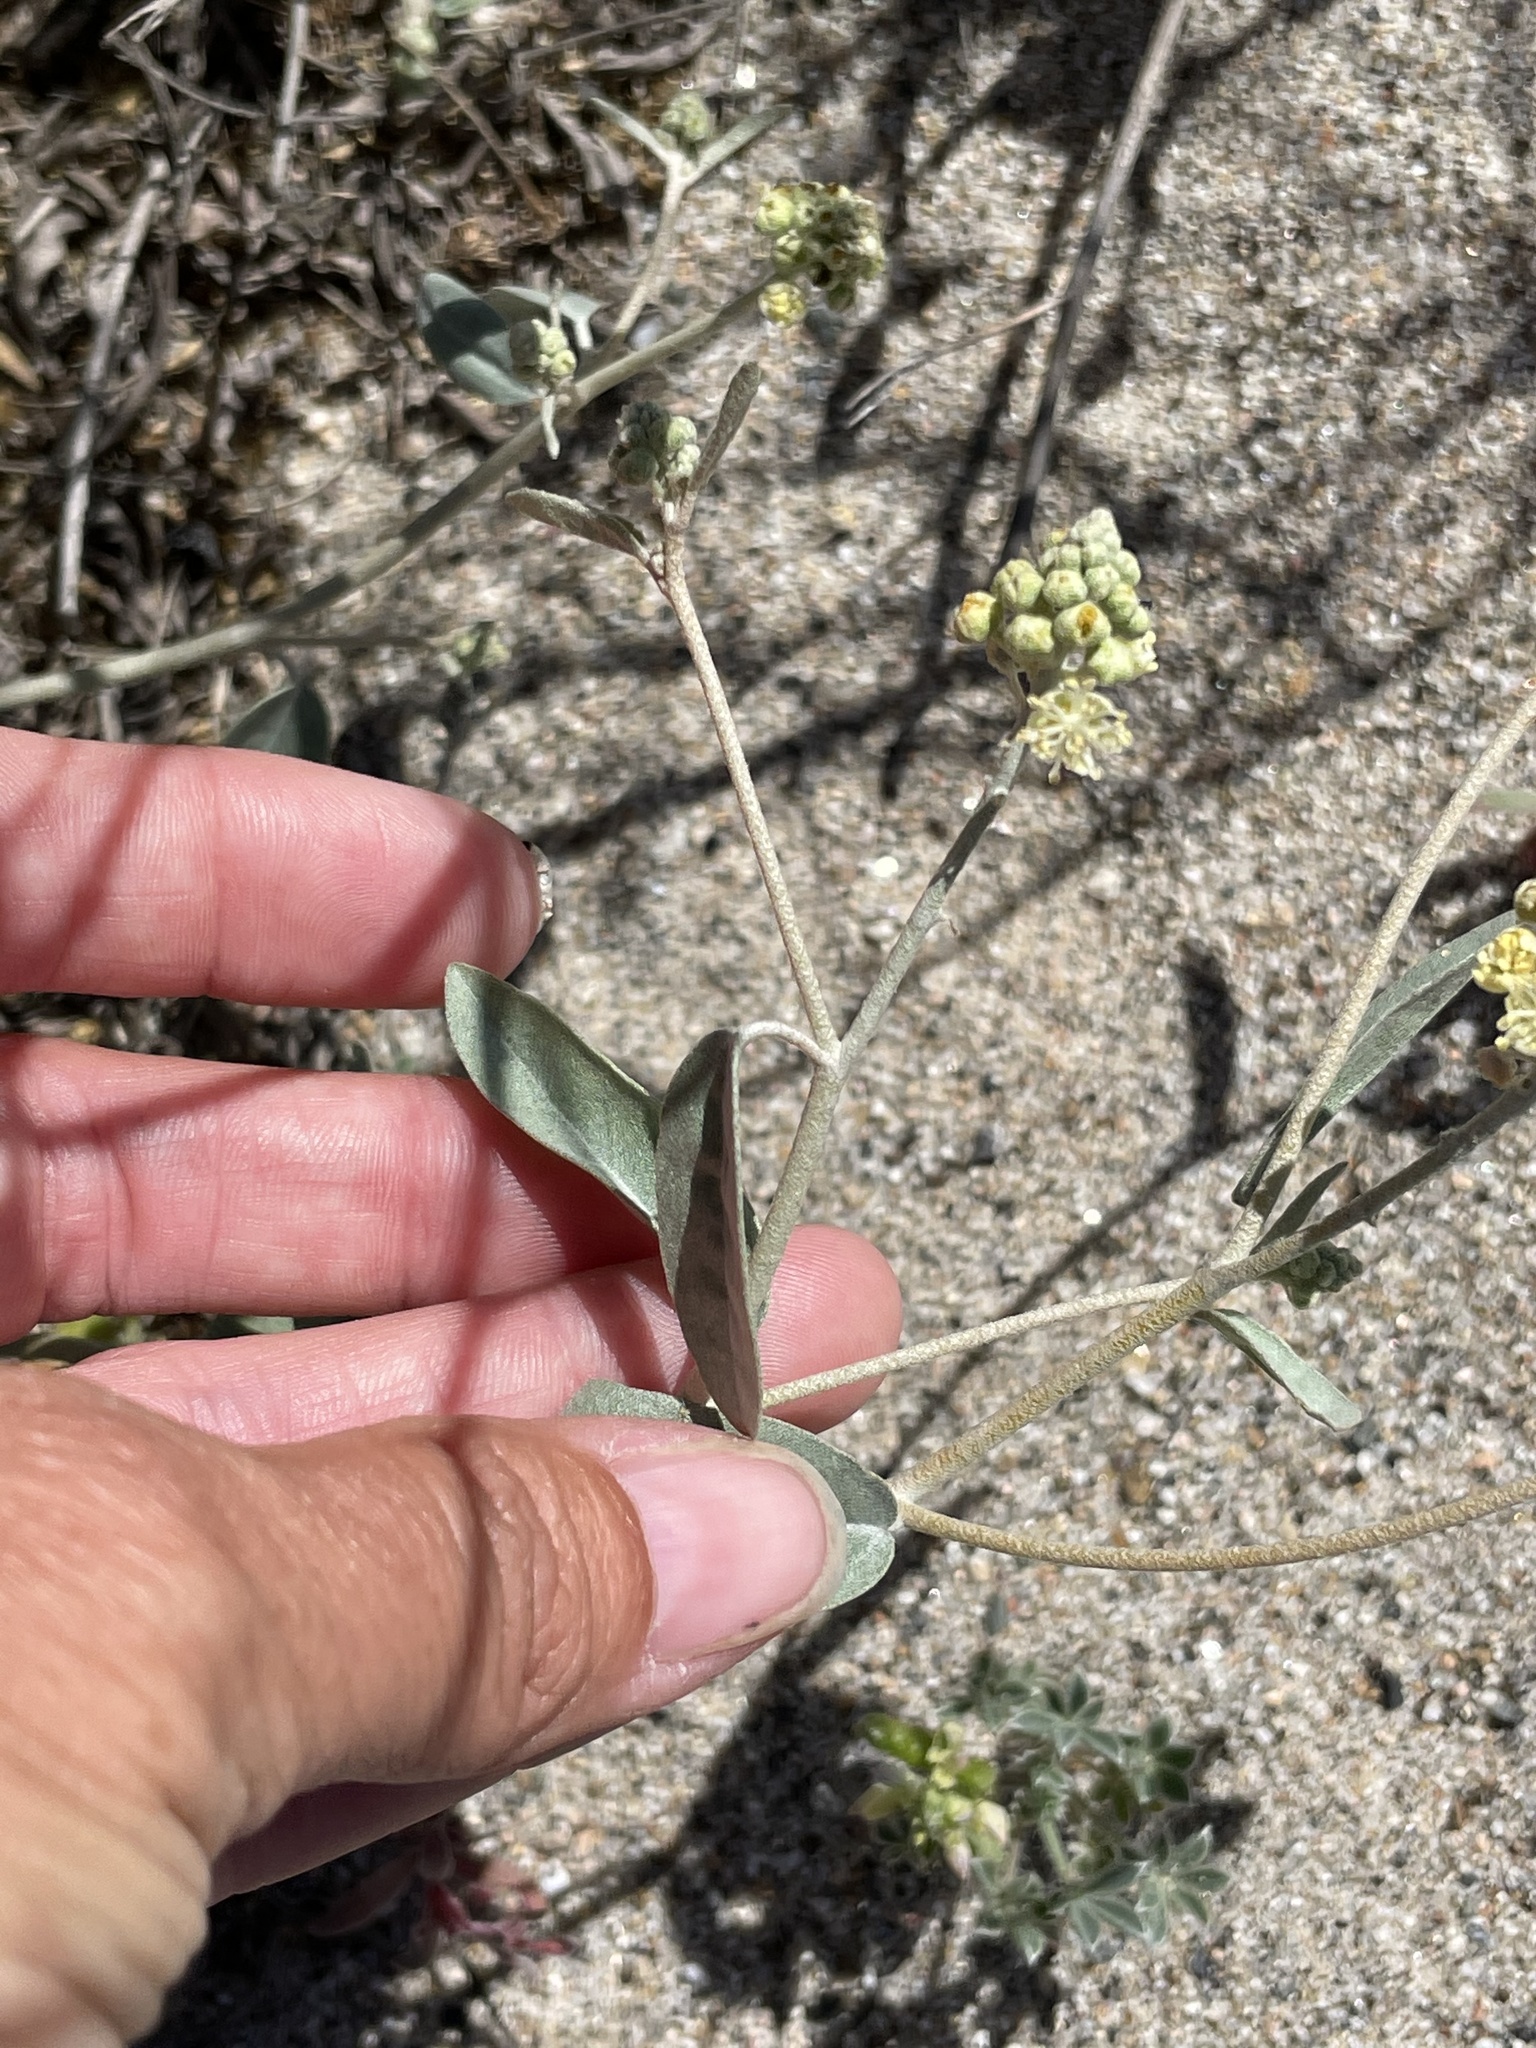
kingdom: Plantae
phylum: Tracheophyta
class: Magnoliopsida
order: Malpighiales
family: Euphorbiaceae
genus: Croton
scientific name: Croton californicus
